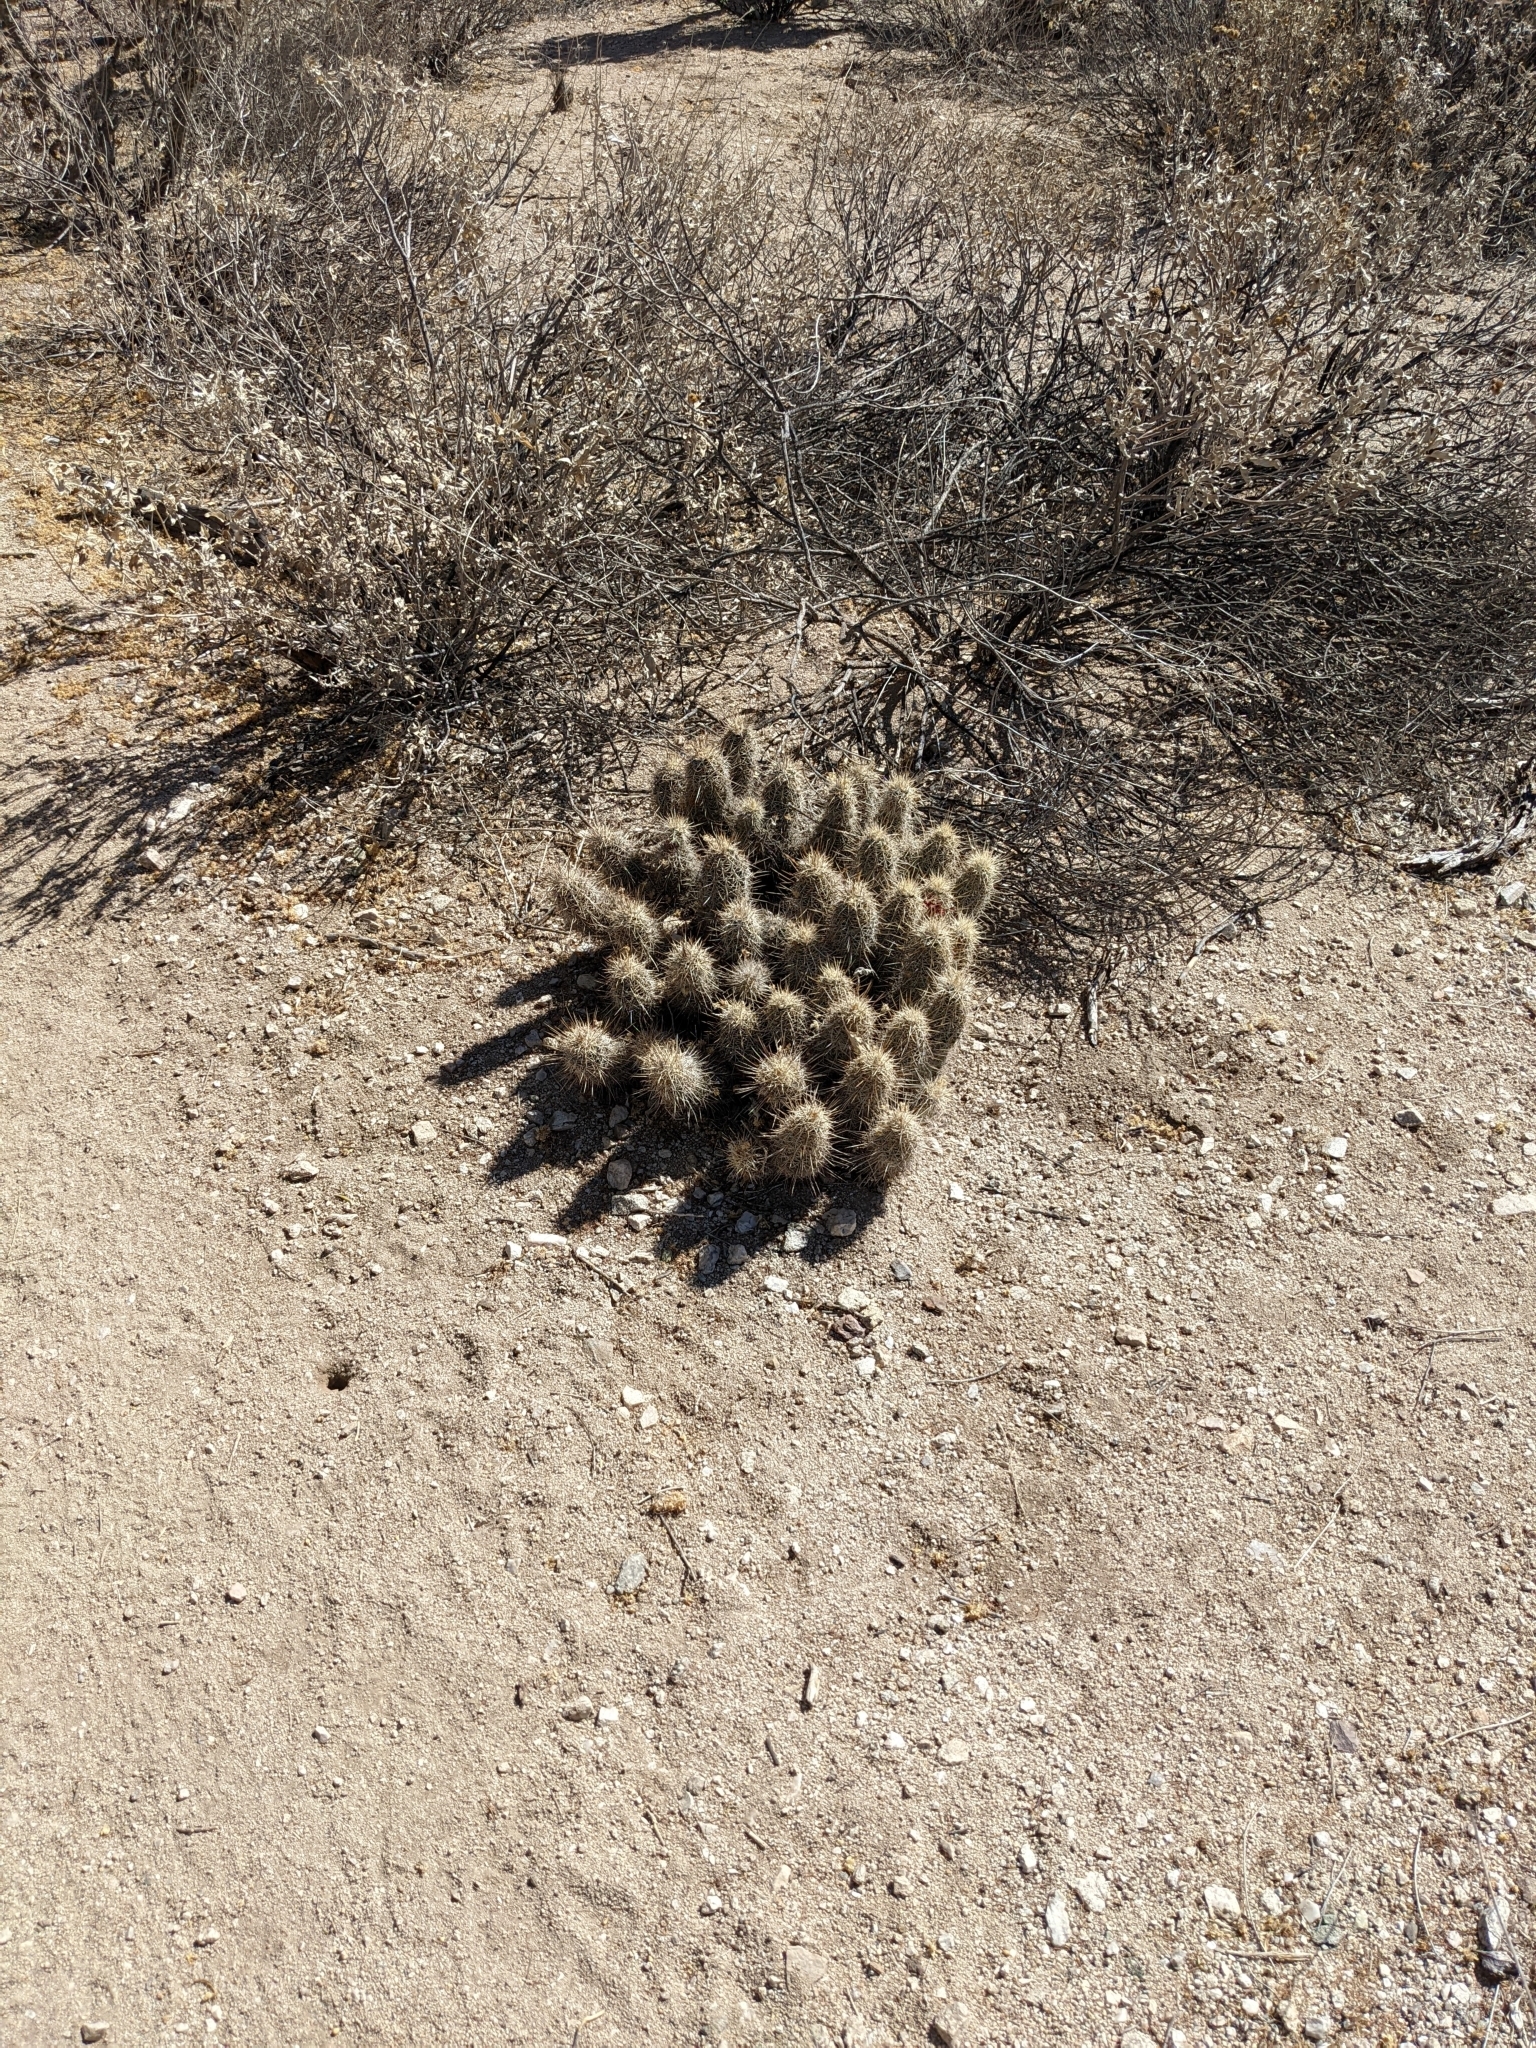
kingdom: Plantae
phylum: Tracheophyta
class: Magnoliopsida
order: Caryophyllales
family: Cactaceae
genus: Echinocereus
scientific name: Echinocereus fasciculatus
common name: Bundle hedgehog
